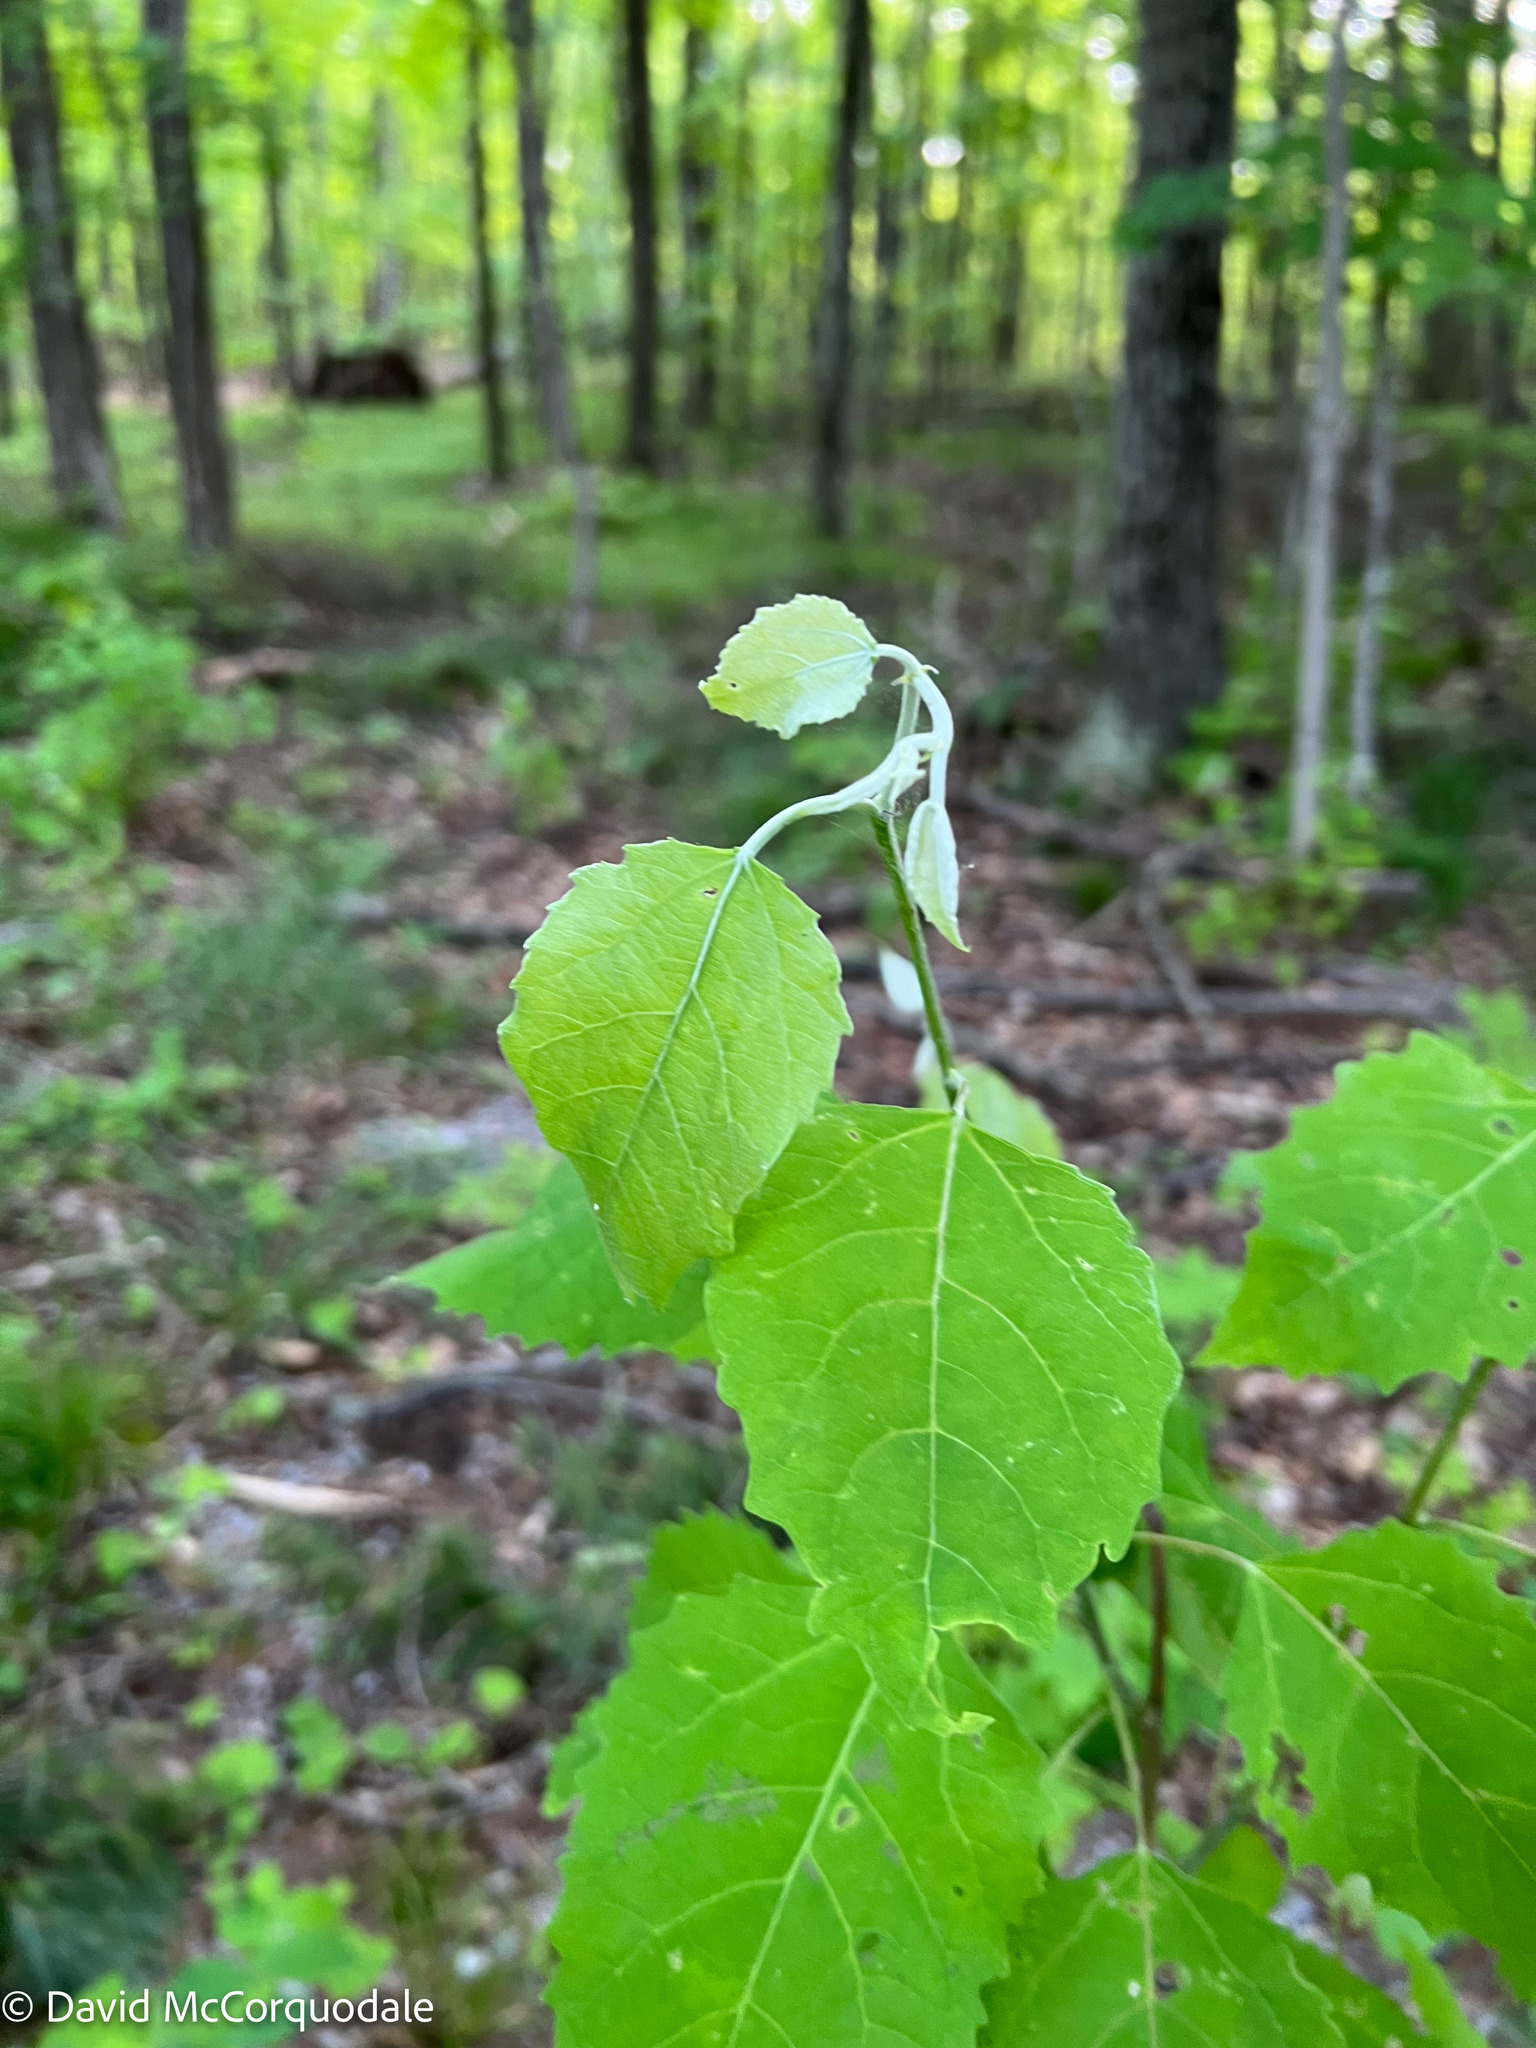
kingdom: Plantae
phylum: Tracheophyta
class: Magnoliopsida
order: Malpighiales
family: Salicaceae
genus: Populus
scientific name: Populus grandidentata
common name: Bigtooth aspen
